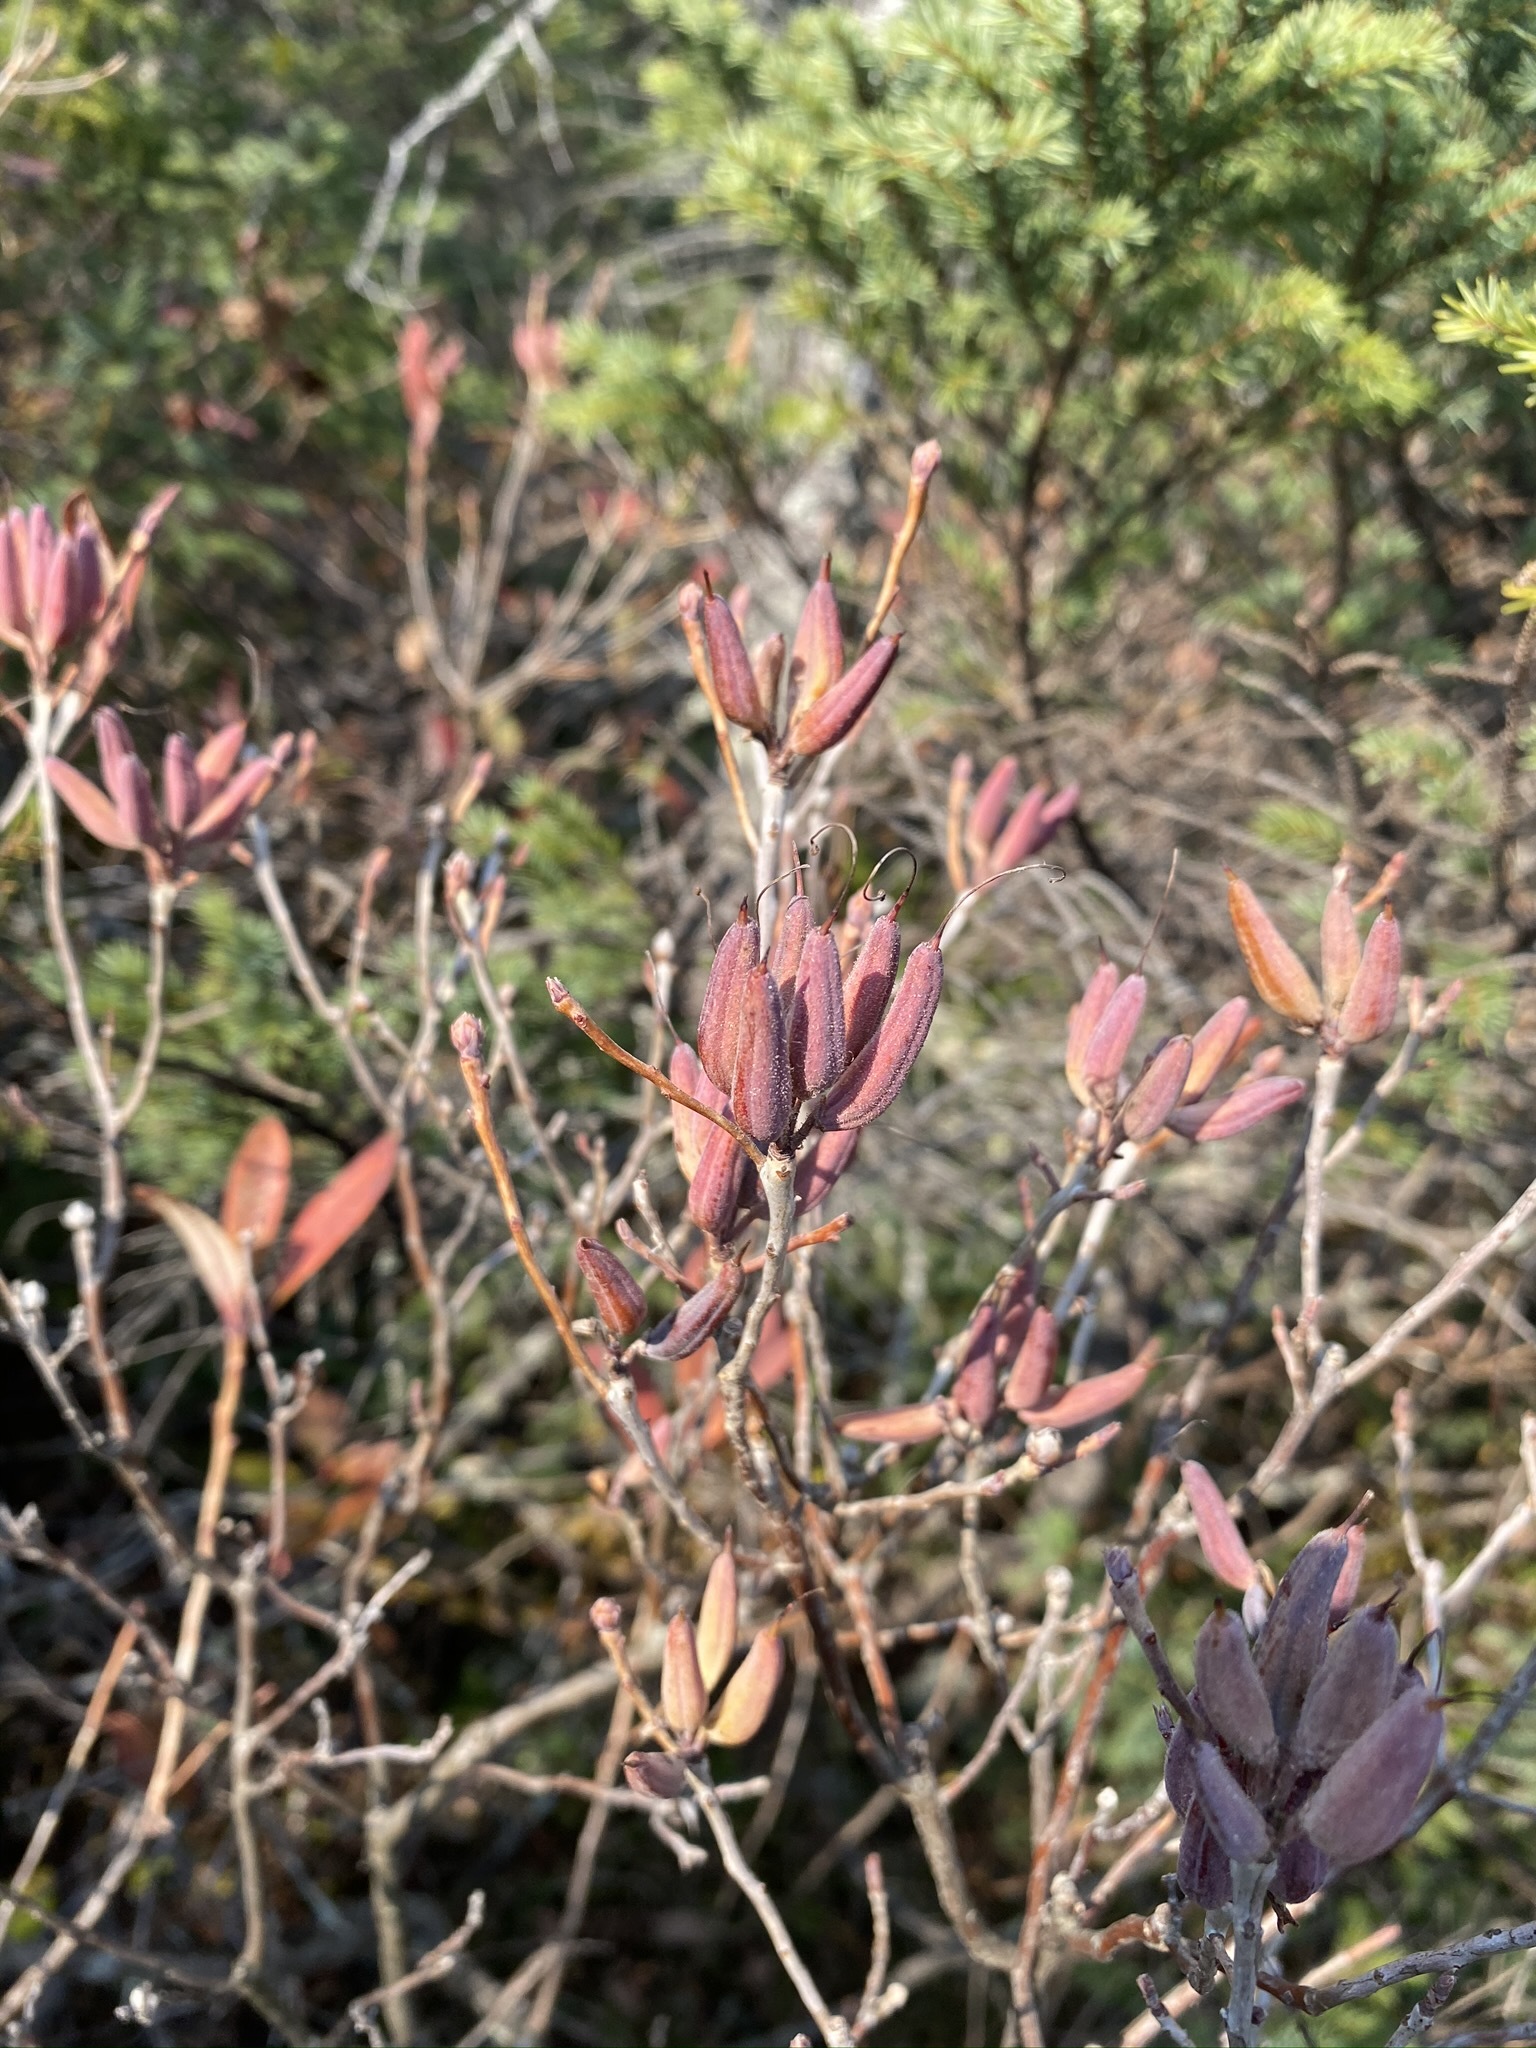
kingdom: Plantae
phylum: Tracheophyta
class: Magnoliopsida
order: Ericales
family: Ericaceae
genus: Rhododendron
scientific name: Rhododendron canadense
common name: Rhodora
